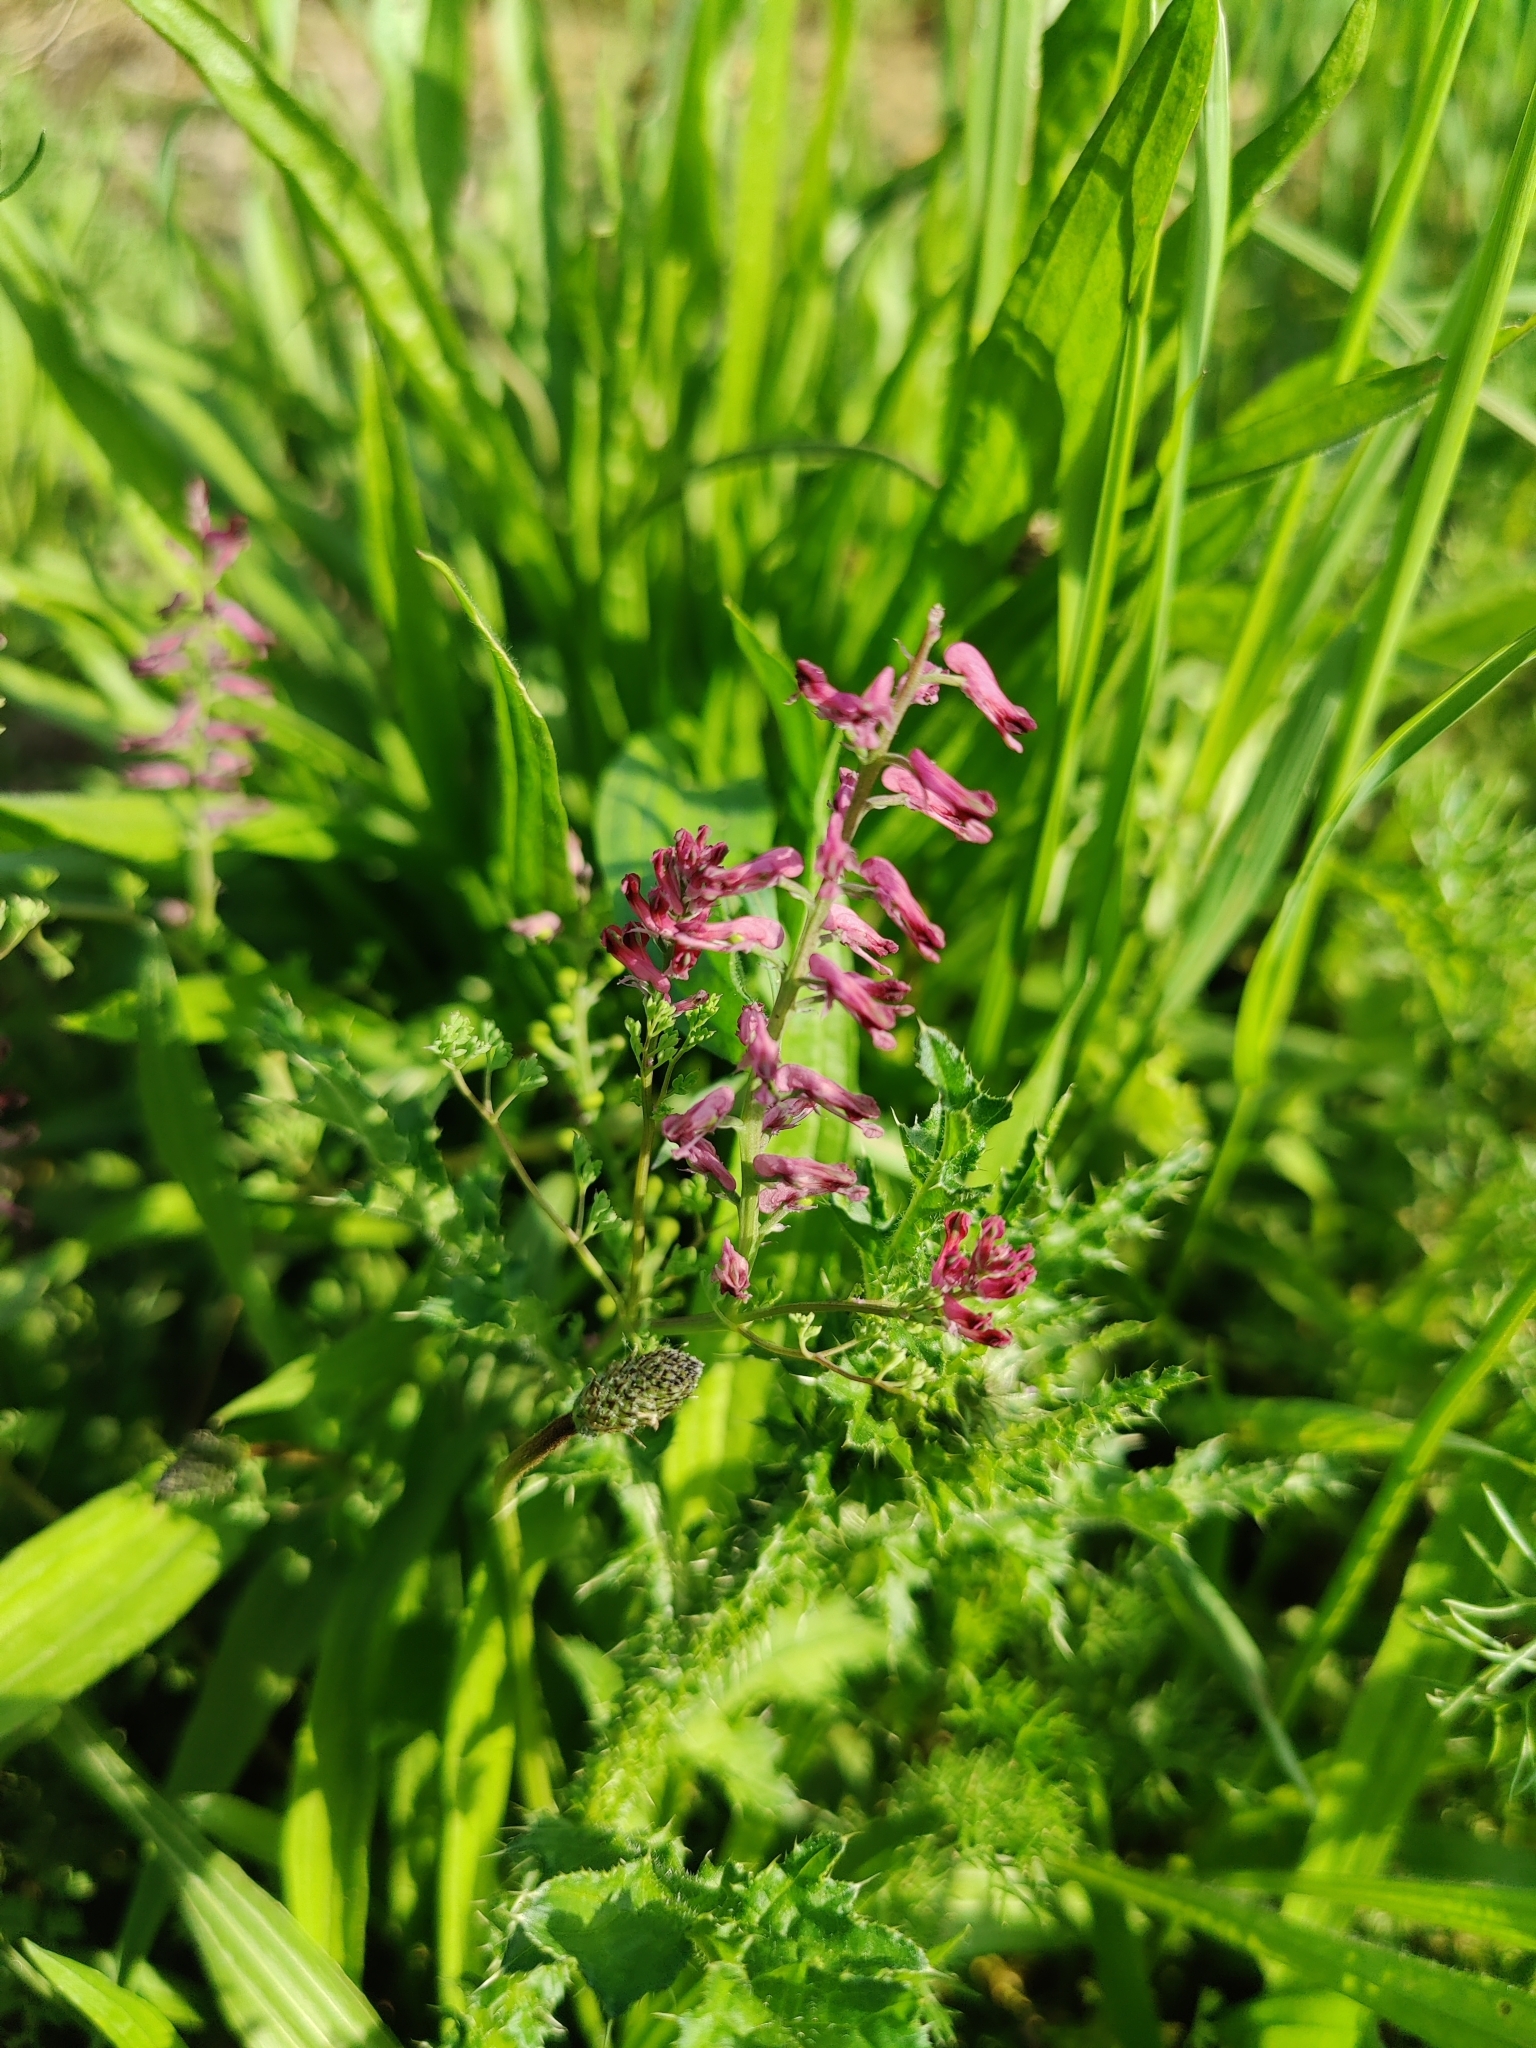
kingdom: Plantae
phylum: Tracheophyta
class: Magnoliopsida
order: Ranunculales
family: Papaveraceae
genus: Fumaria
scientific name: Fumaria officinalis
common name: Common fumitory
